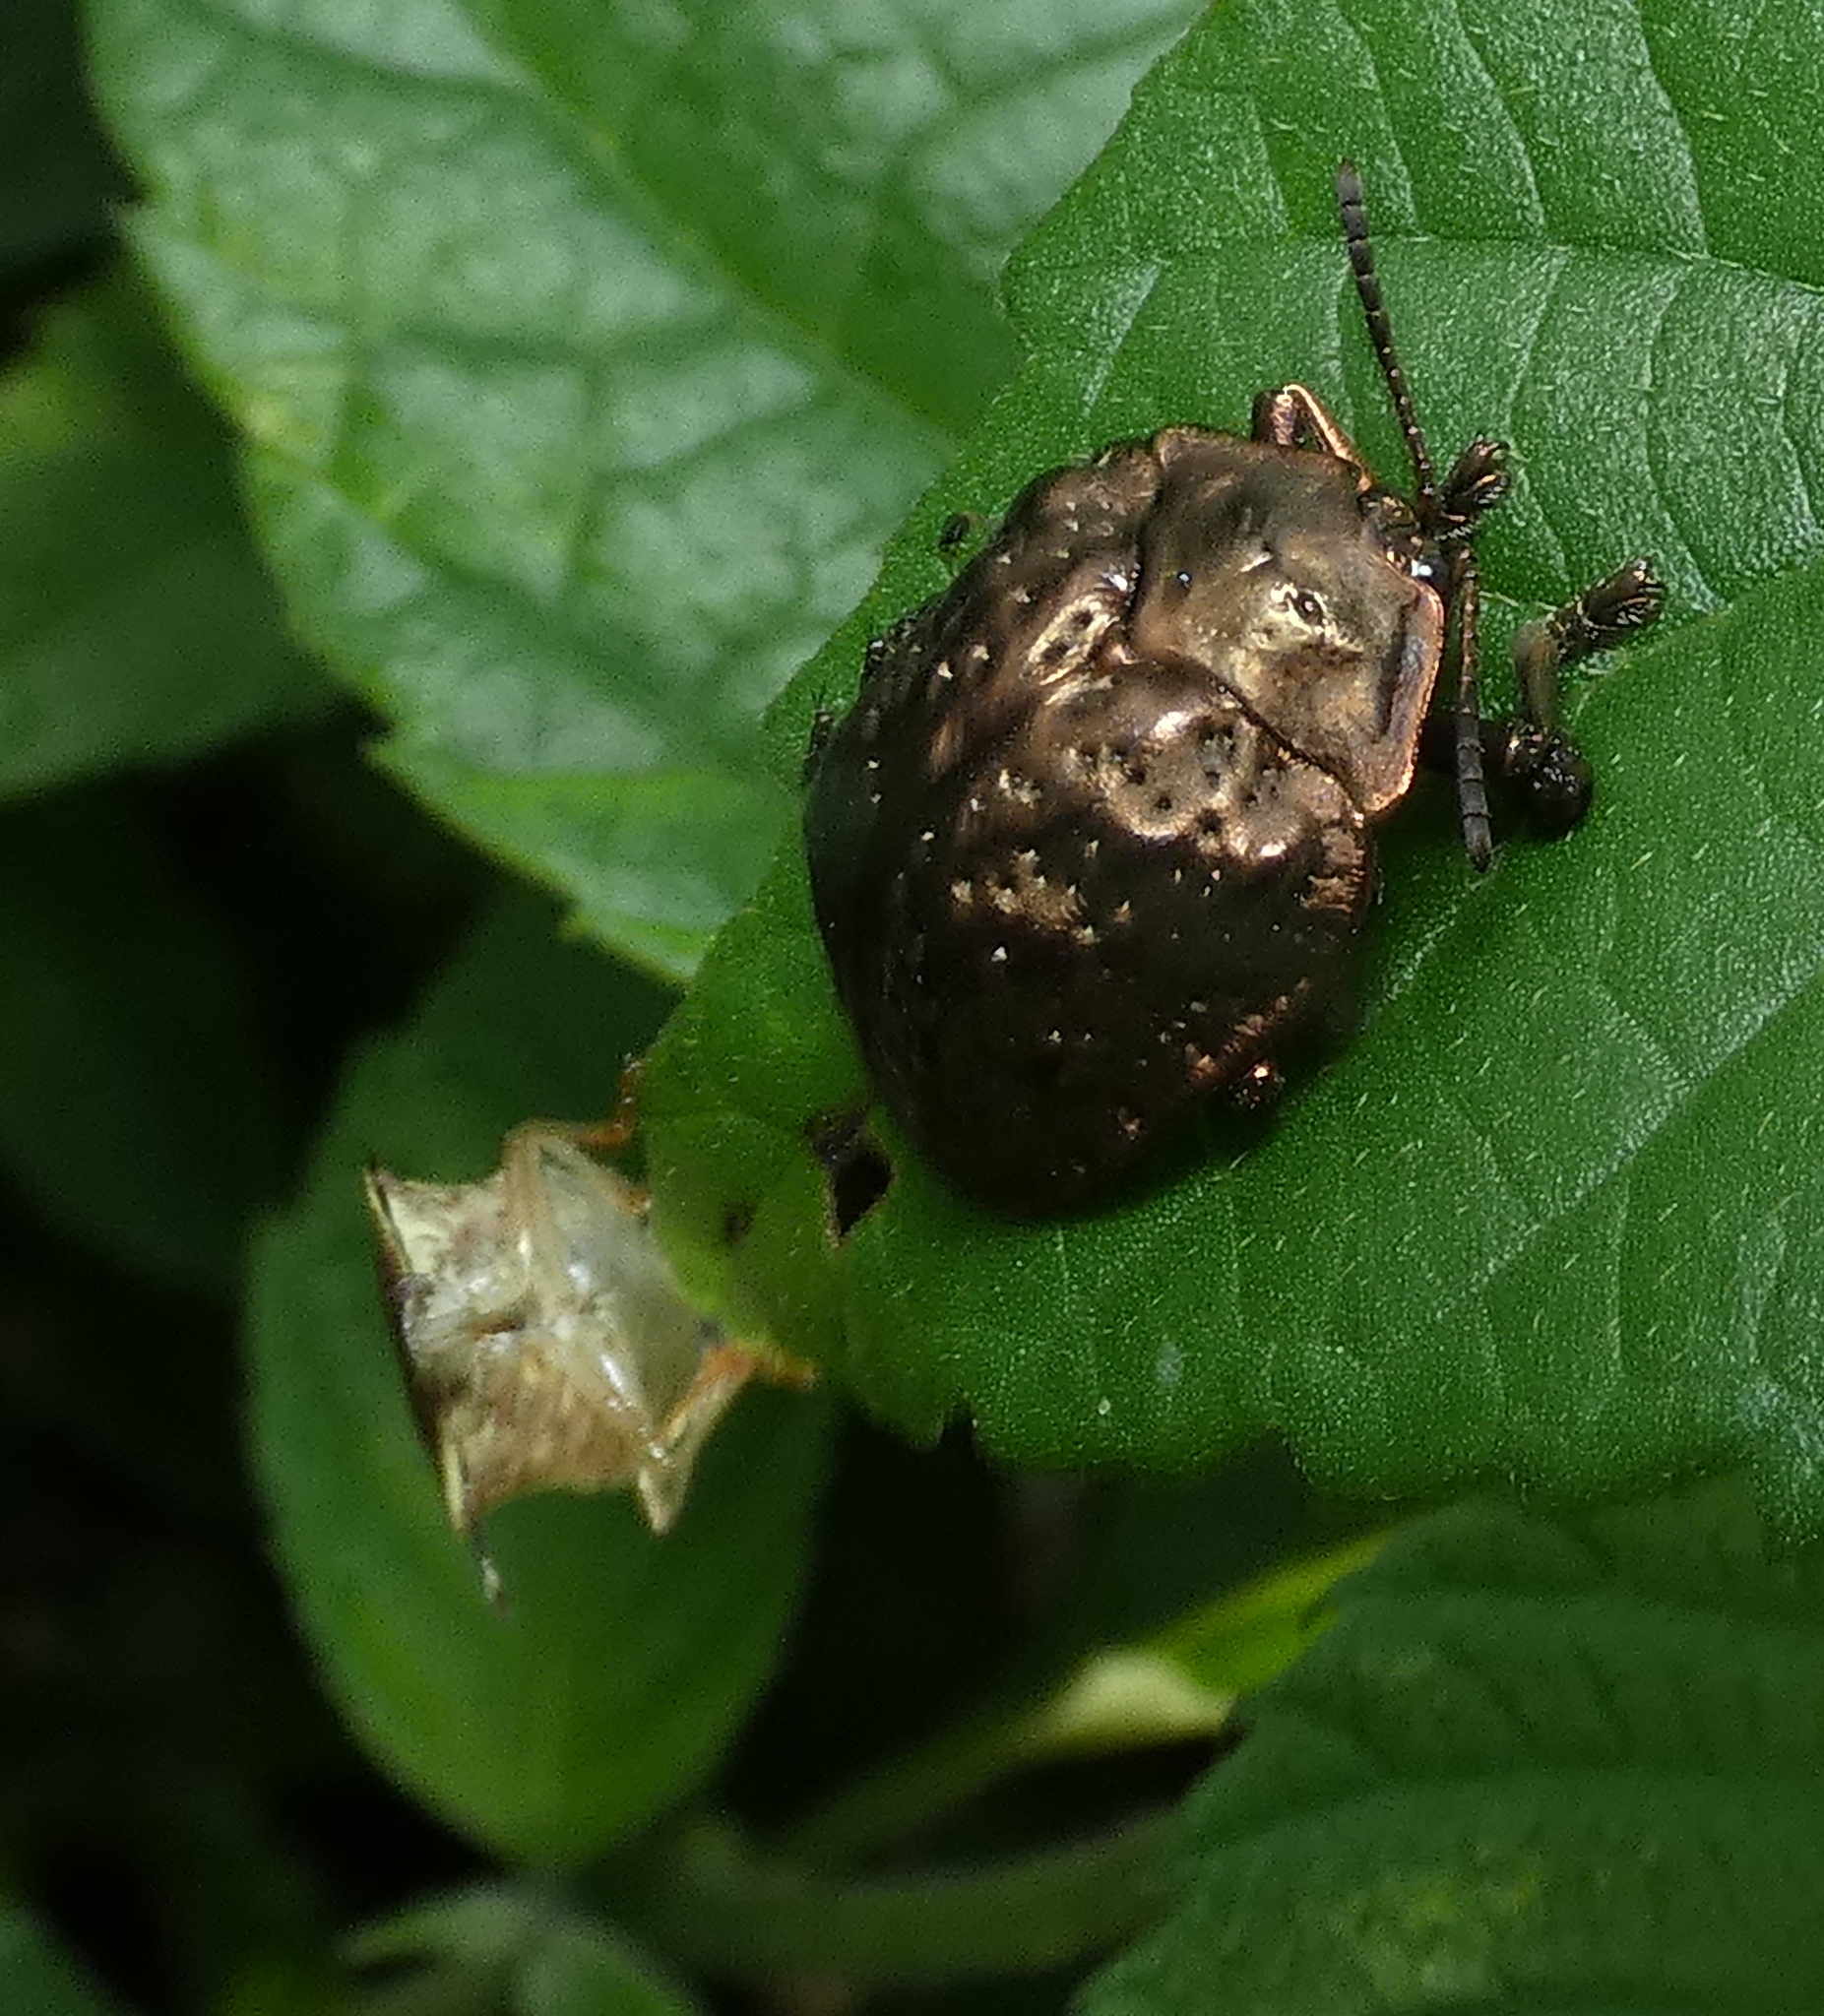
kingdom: Animalia
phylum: Arthropoda
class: Insecta
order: Coleoptera
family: Chrysomelidae
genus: Polychalca
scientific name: Polychalca aerea
